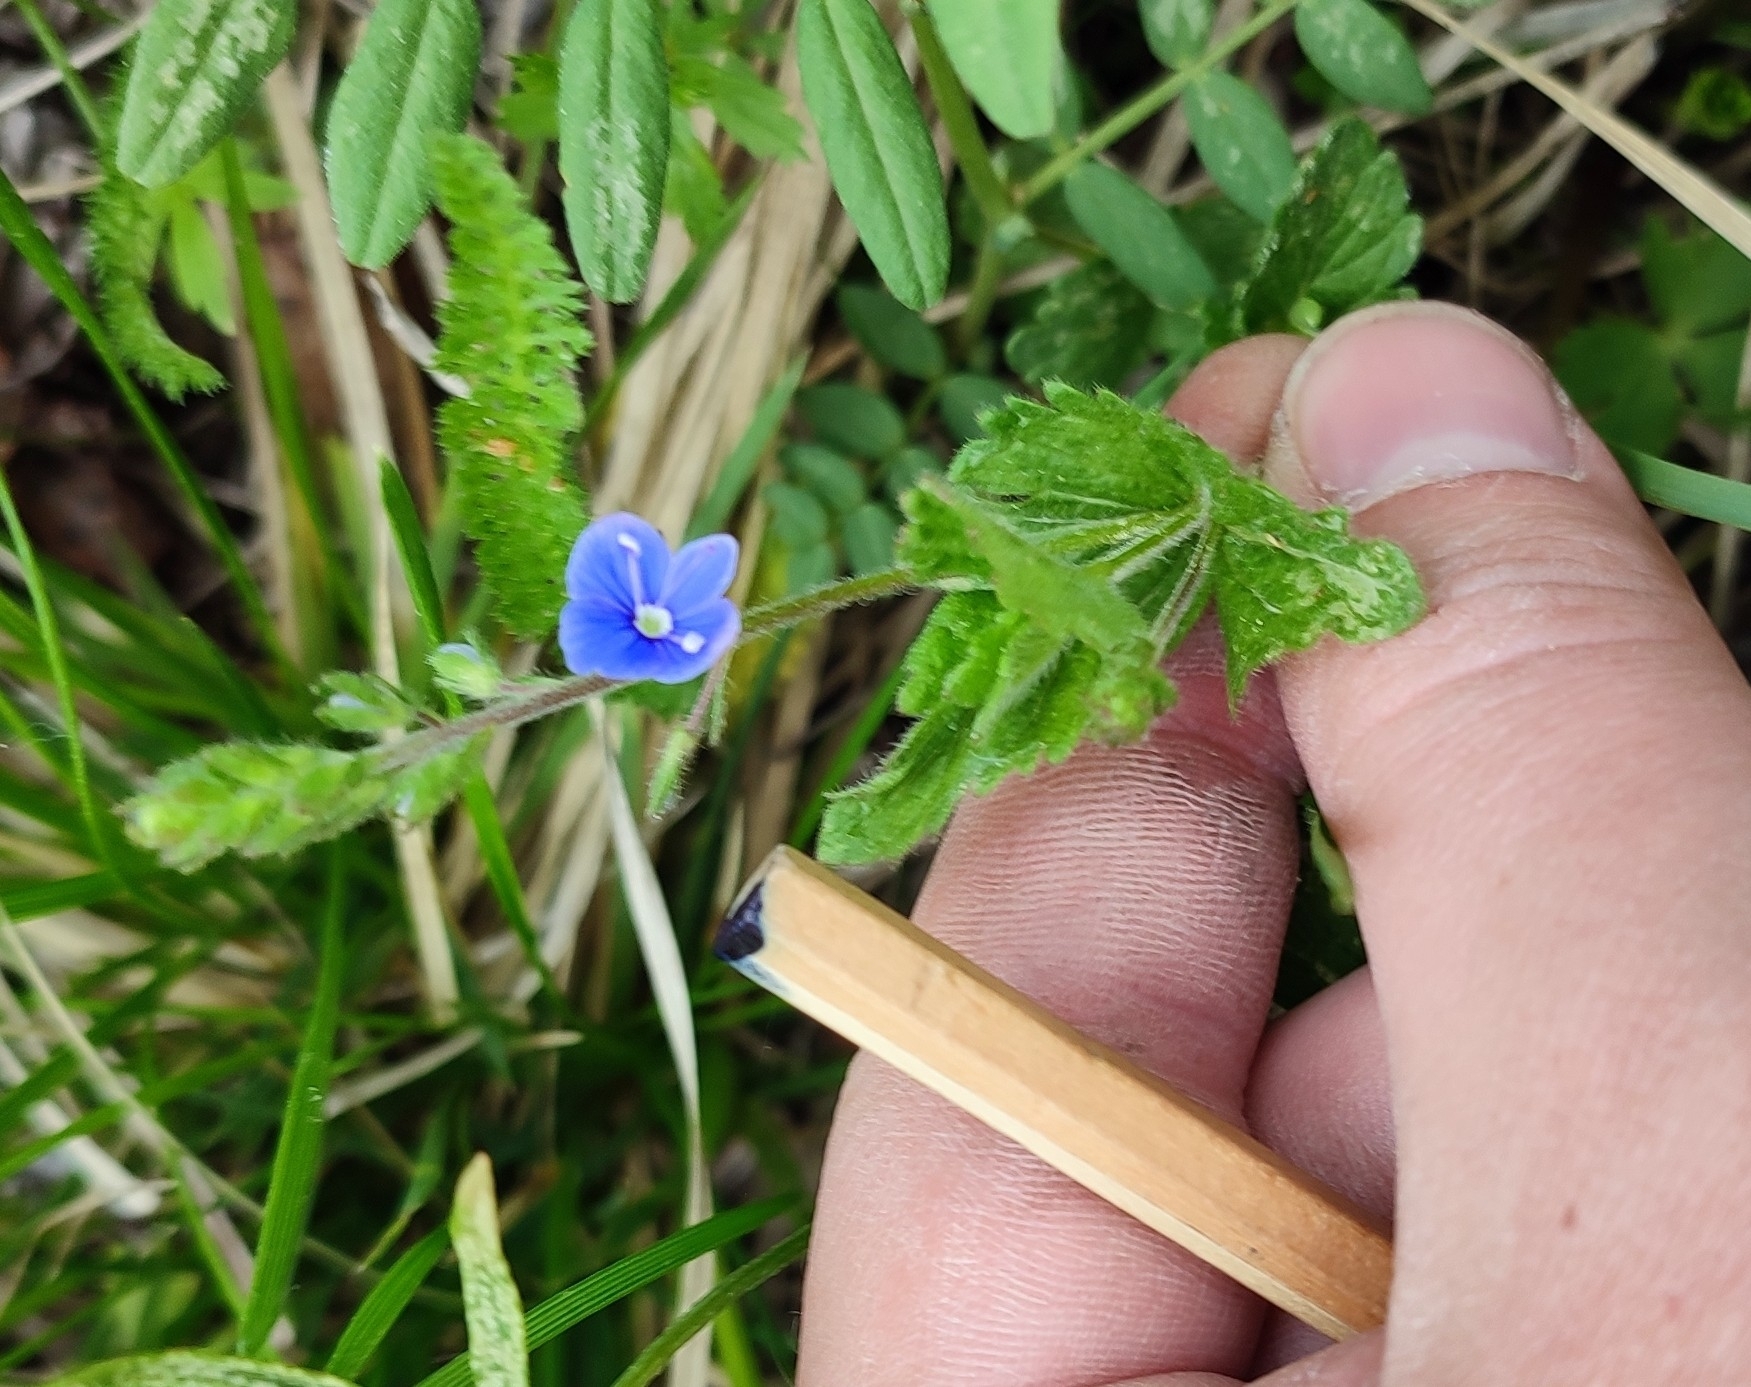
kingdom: Plantae
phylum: Tracheophyta
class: Magnoliopsida
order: Lamiales
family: Plantaginaceae
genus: Veronica
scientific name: Veronica chamaedrys
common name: Germander speedwell
